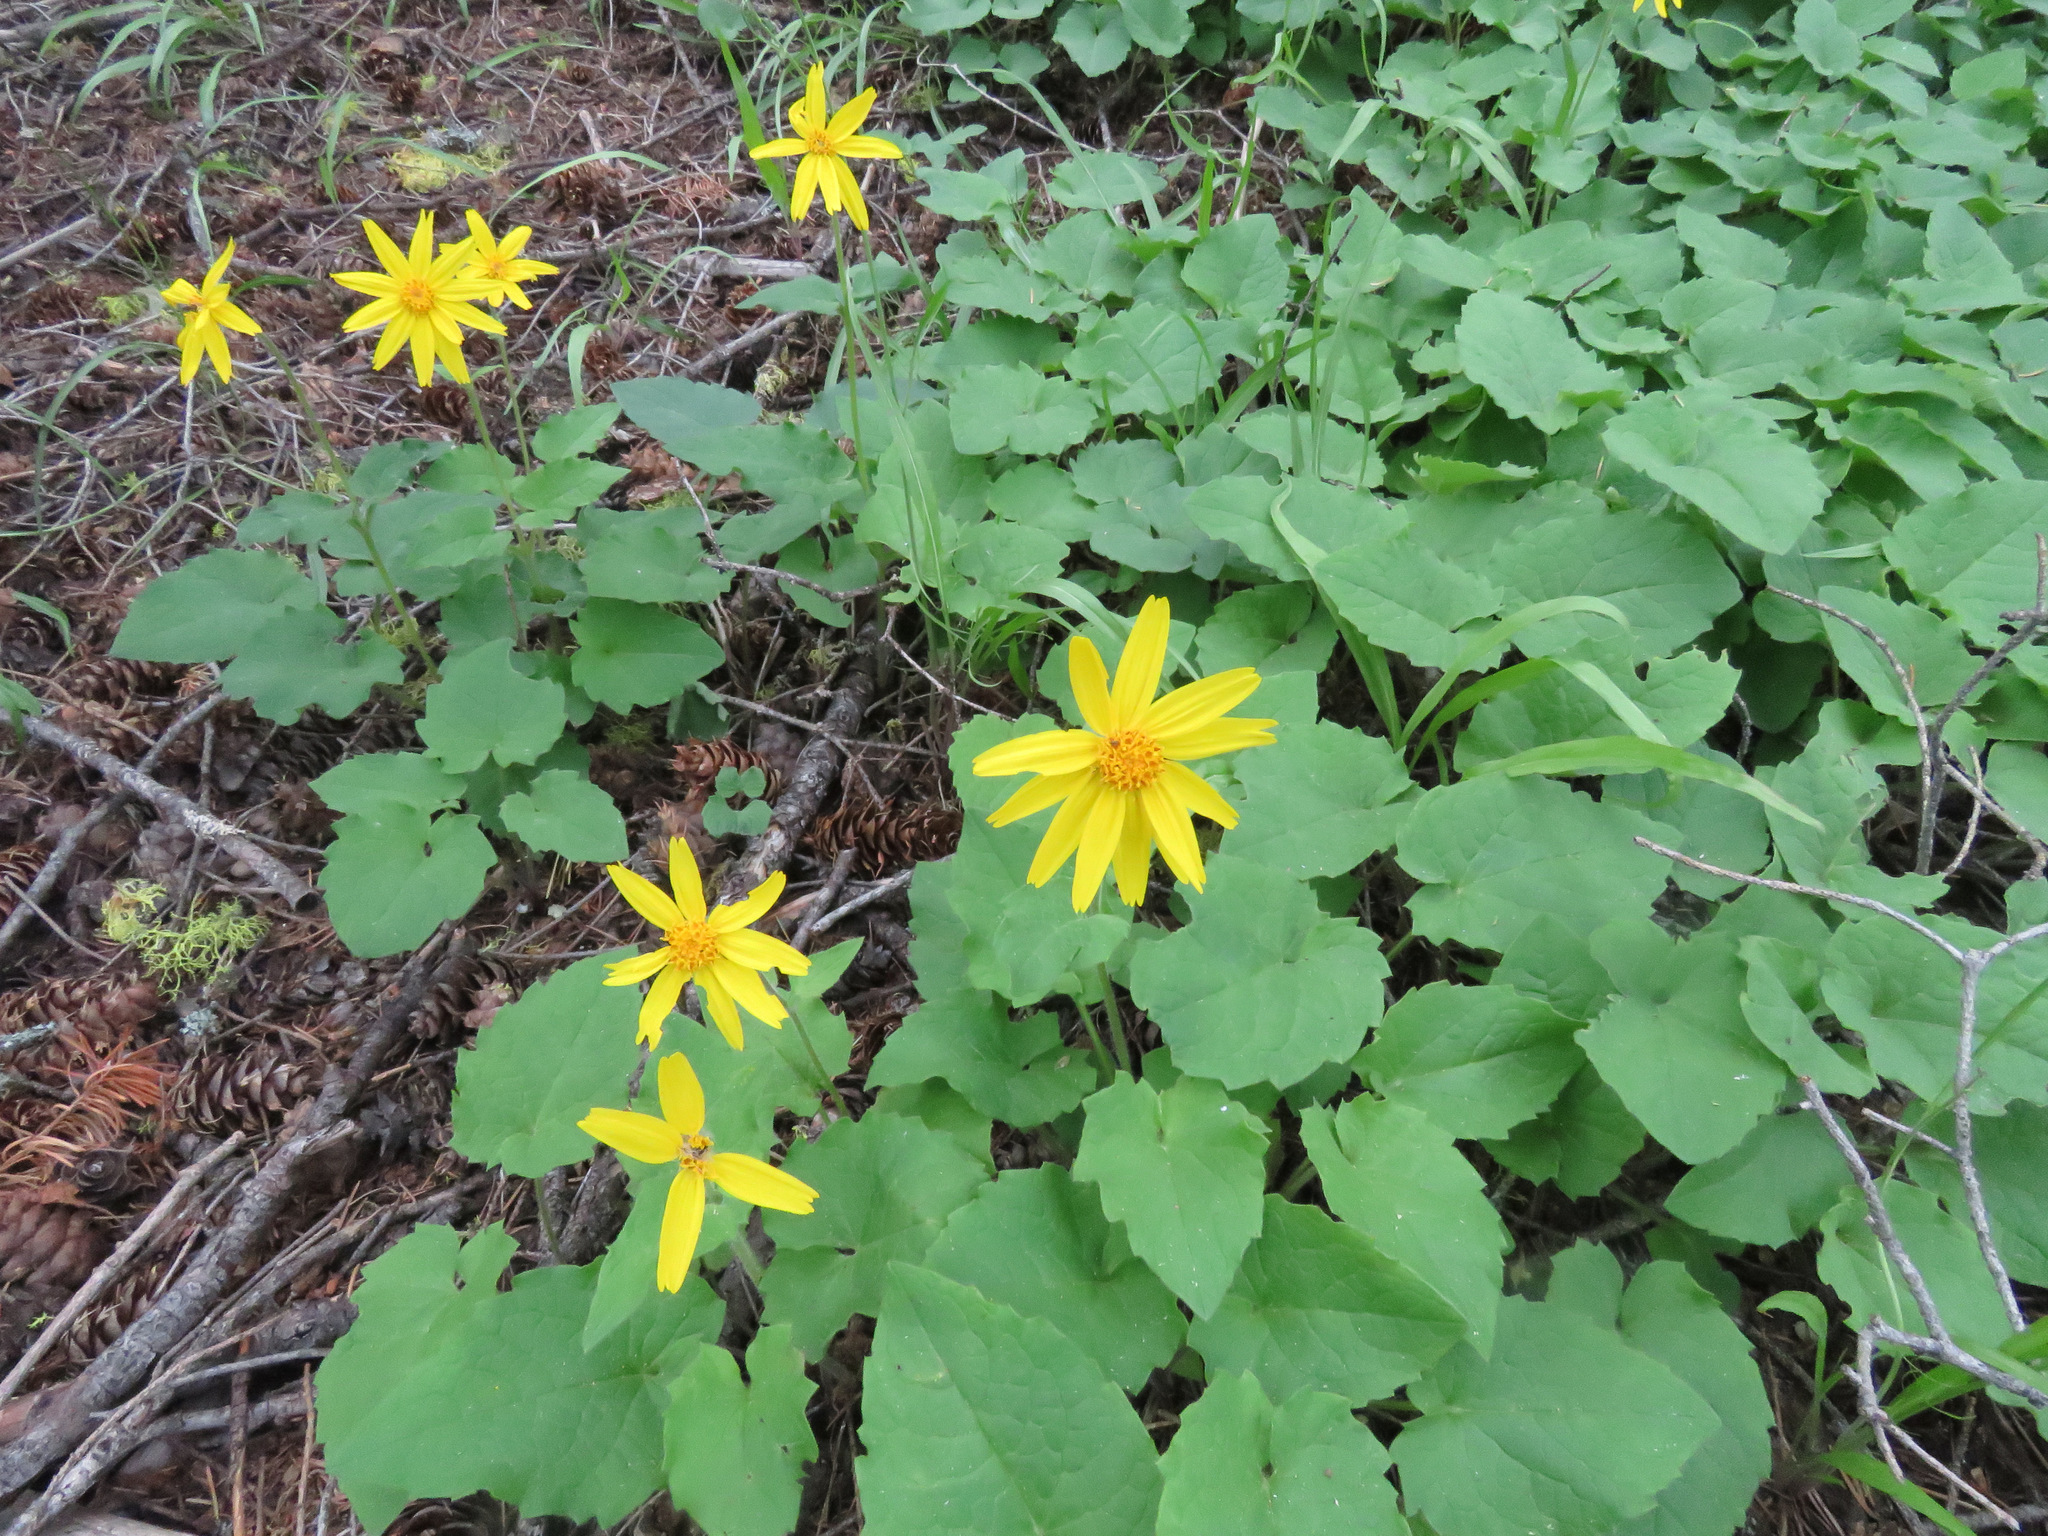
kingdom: Plantae
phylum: Tracheophyta
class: Magnoliopsida
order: Asterales
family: Asteraceae
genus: Arnica
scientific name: Arnica cordifolia
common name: Heart-leaf arnica
